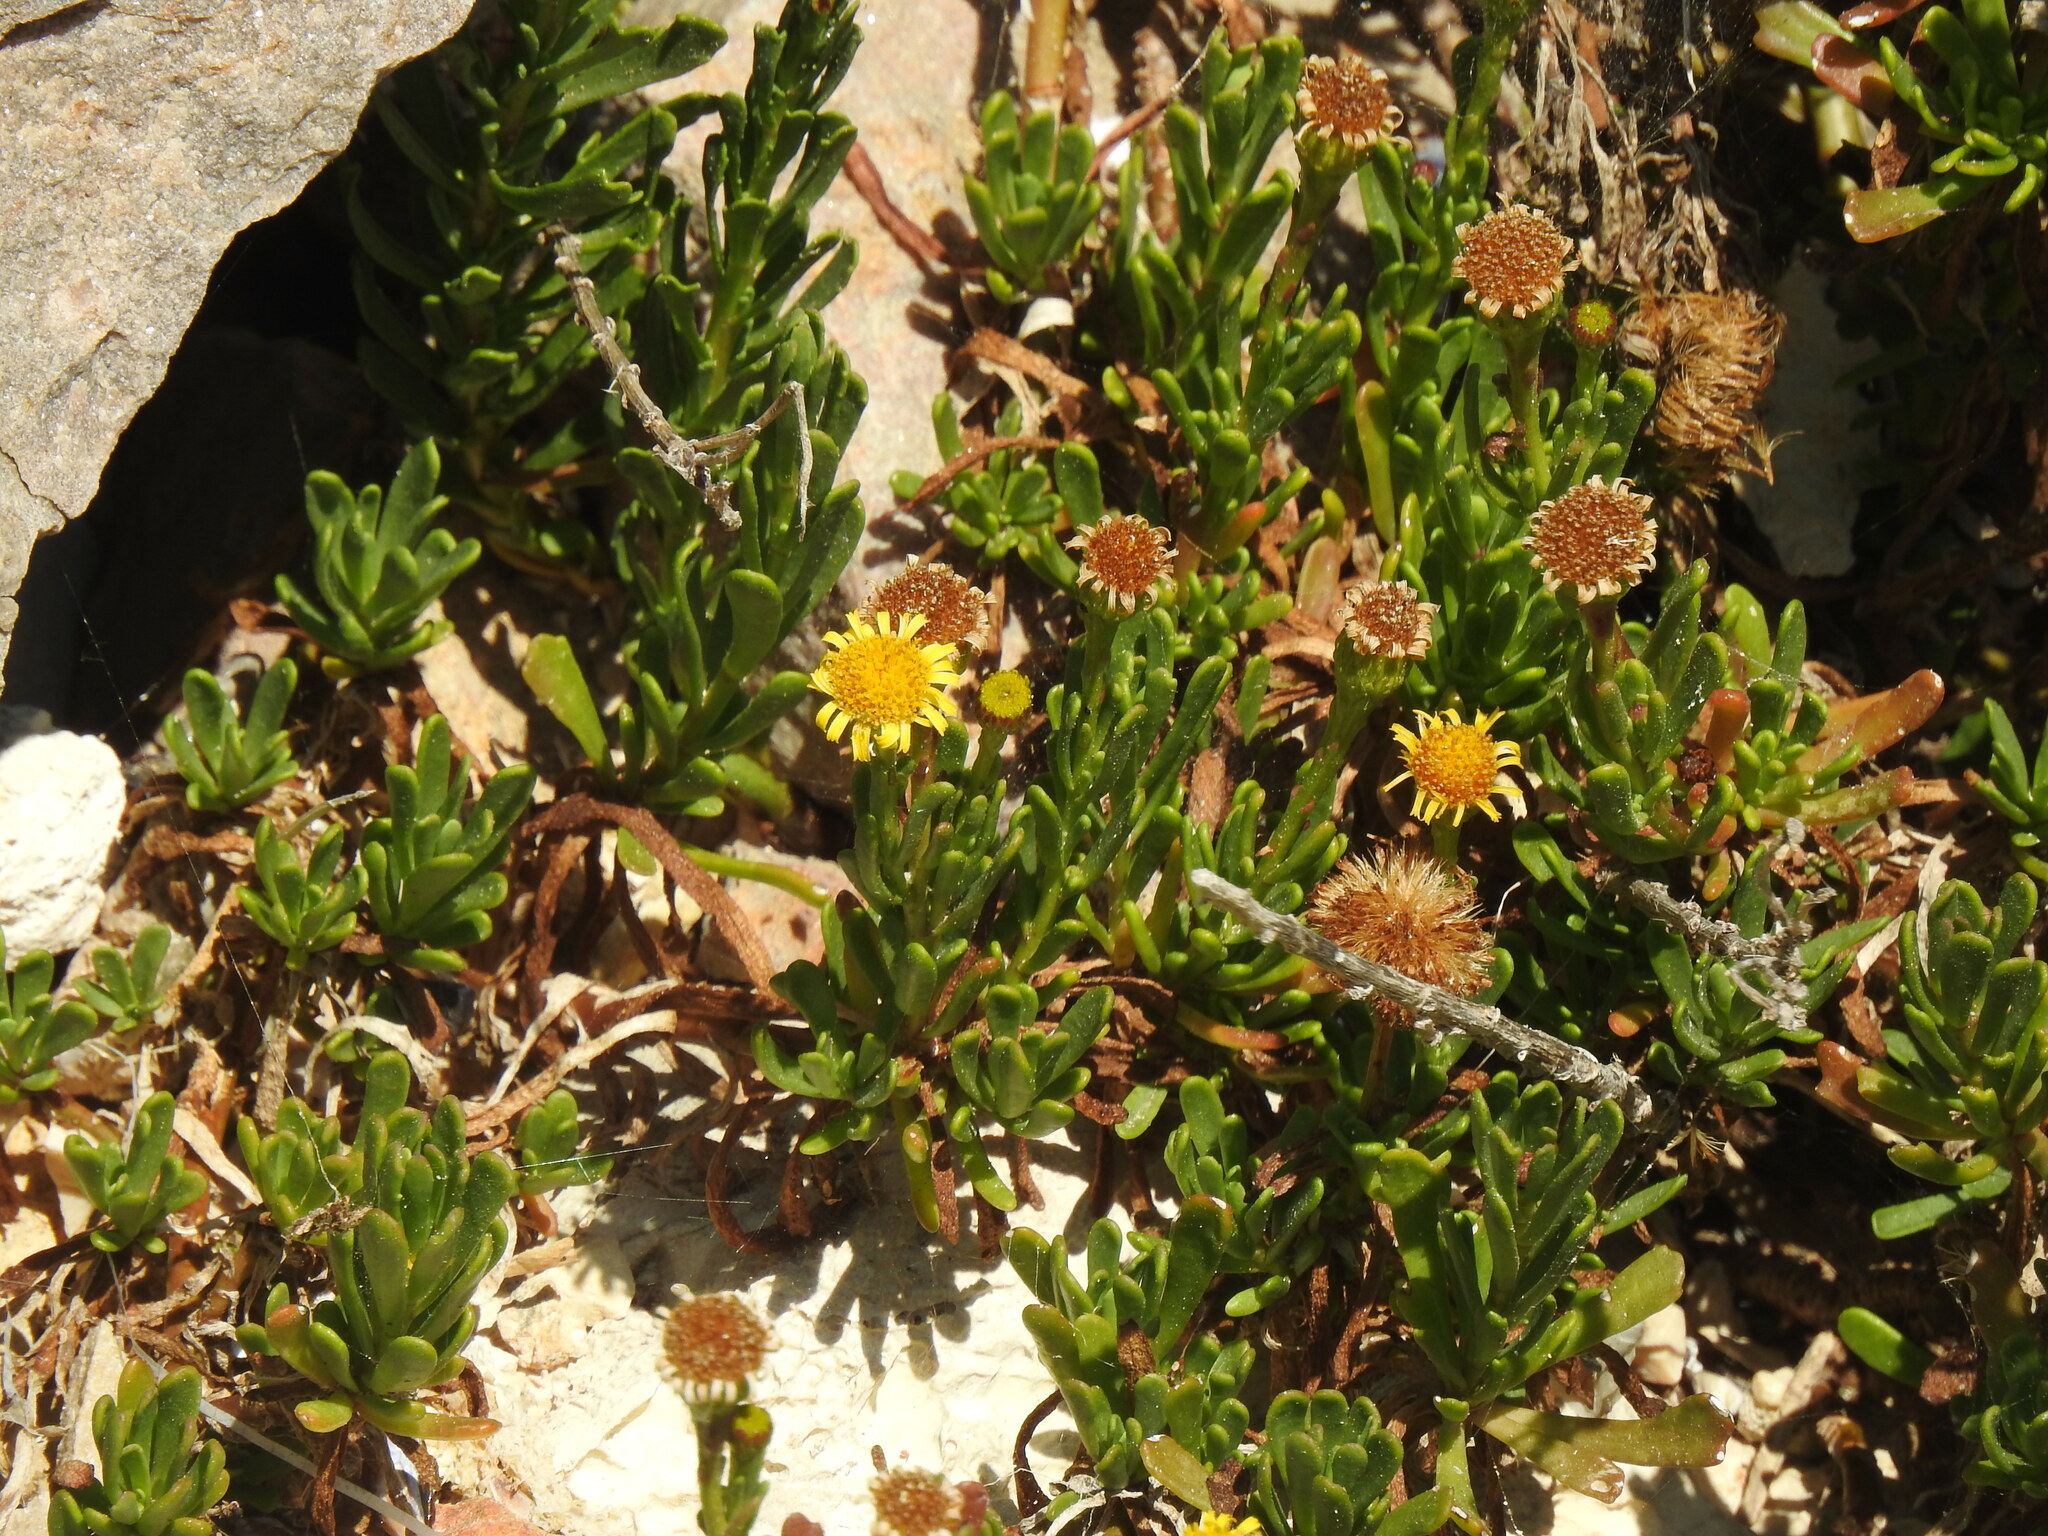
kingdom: Plantae
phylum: Tracheophyta
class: Magnoliopsida
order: Asterales
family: Asteraceae
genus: Limbarda
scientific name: Limbarda crithmoides
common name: Golden samphire
